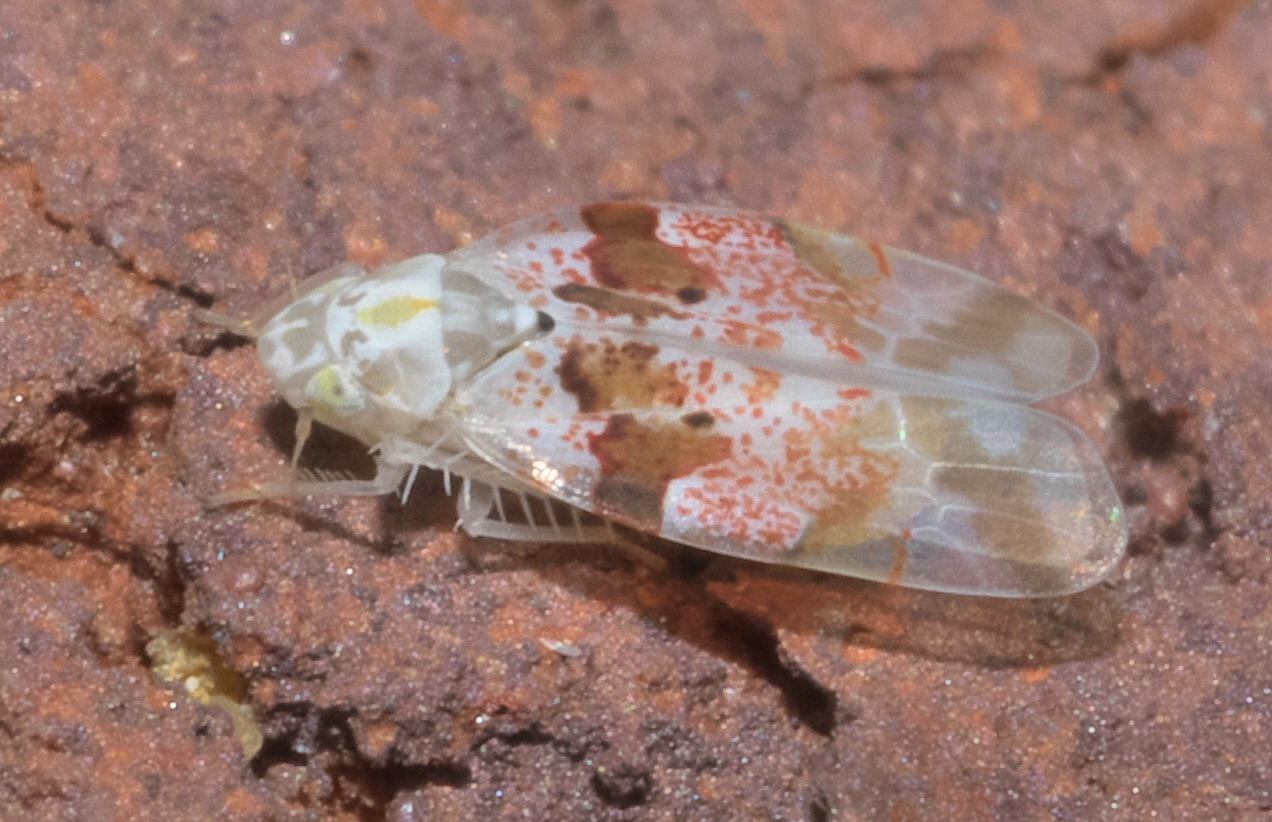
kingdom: Animalia
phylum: Arthropoda
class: Insecta
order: Hemiptera
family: Cicadellidae
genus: Hymetta
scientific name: Hymetta anthisma
